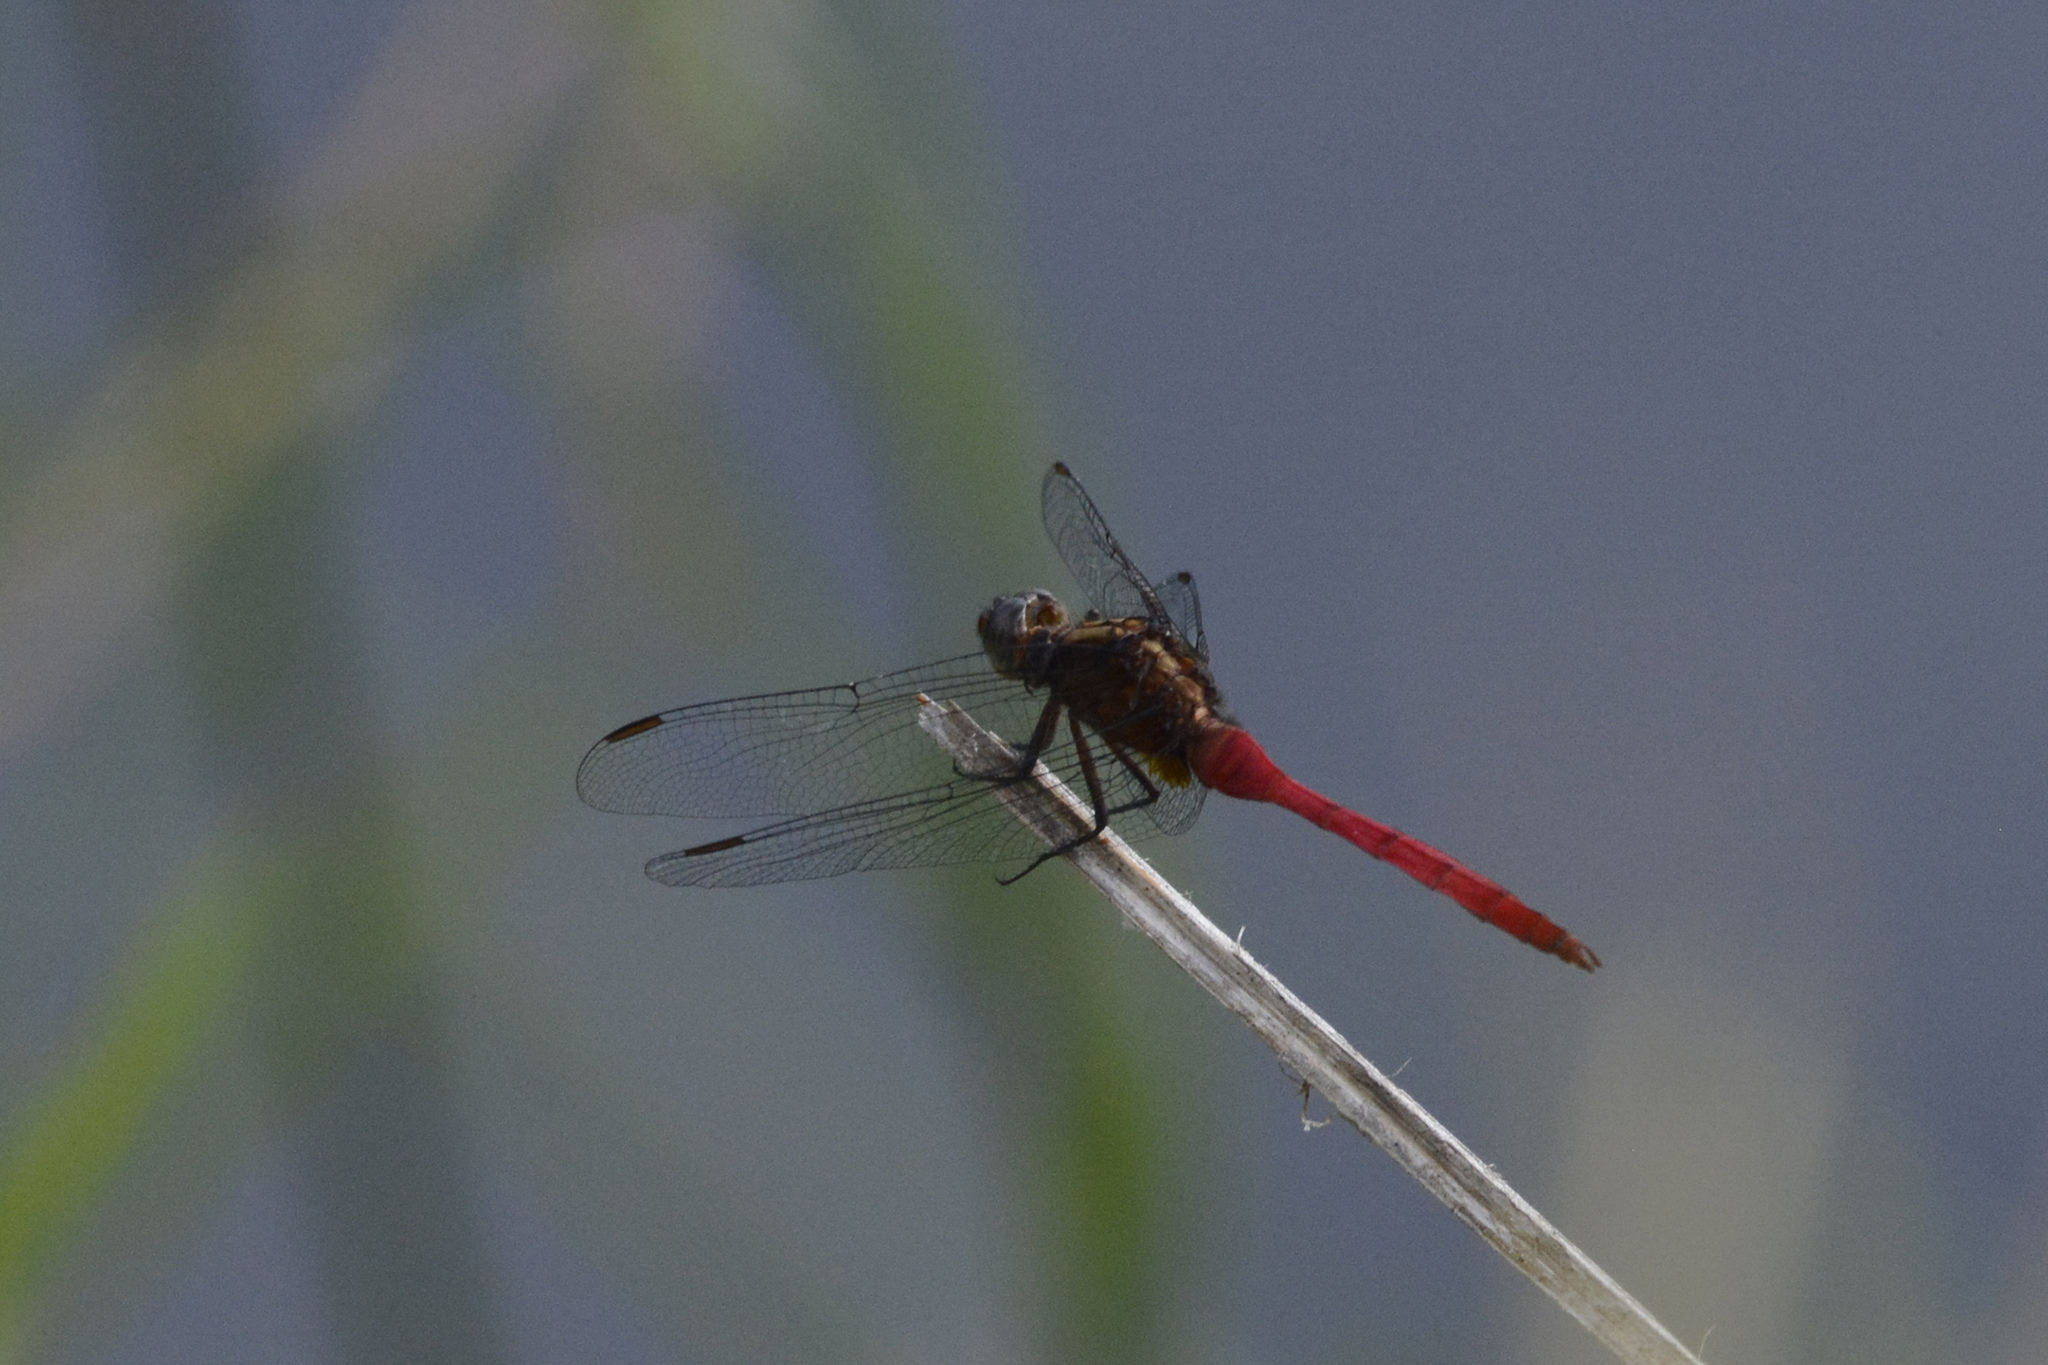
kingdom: Animalia
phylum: Arthropoda
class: Insecta
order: Odonata
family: Libellulidae
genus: Orthetrum
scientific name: Orthetrum villosovittatum
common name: Firery skimmer
